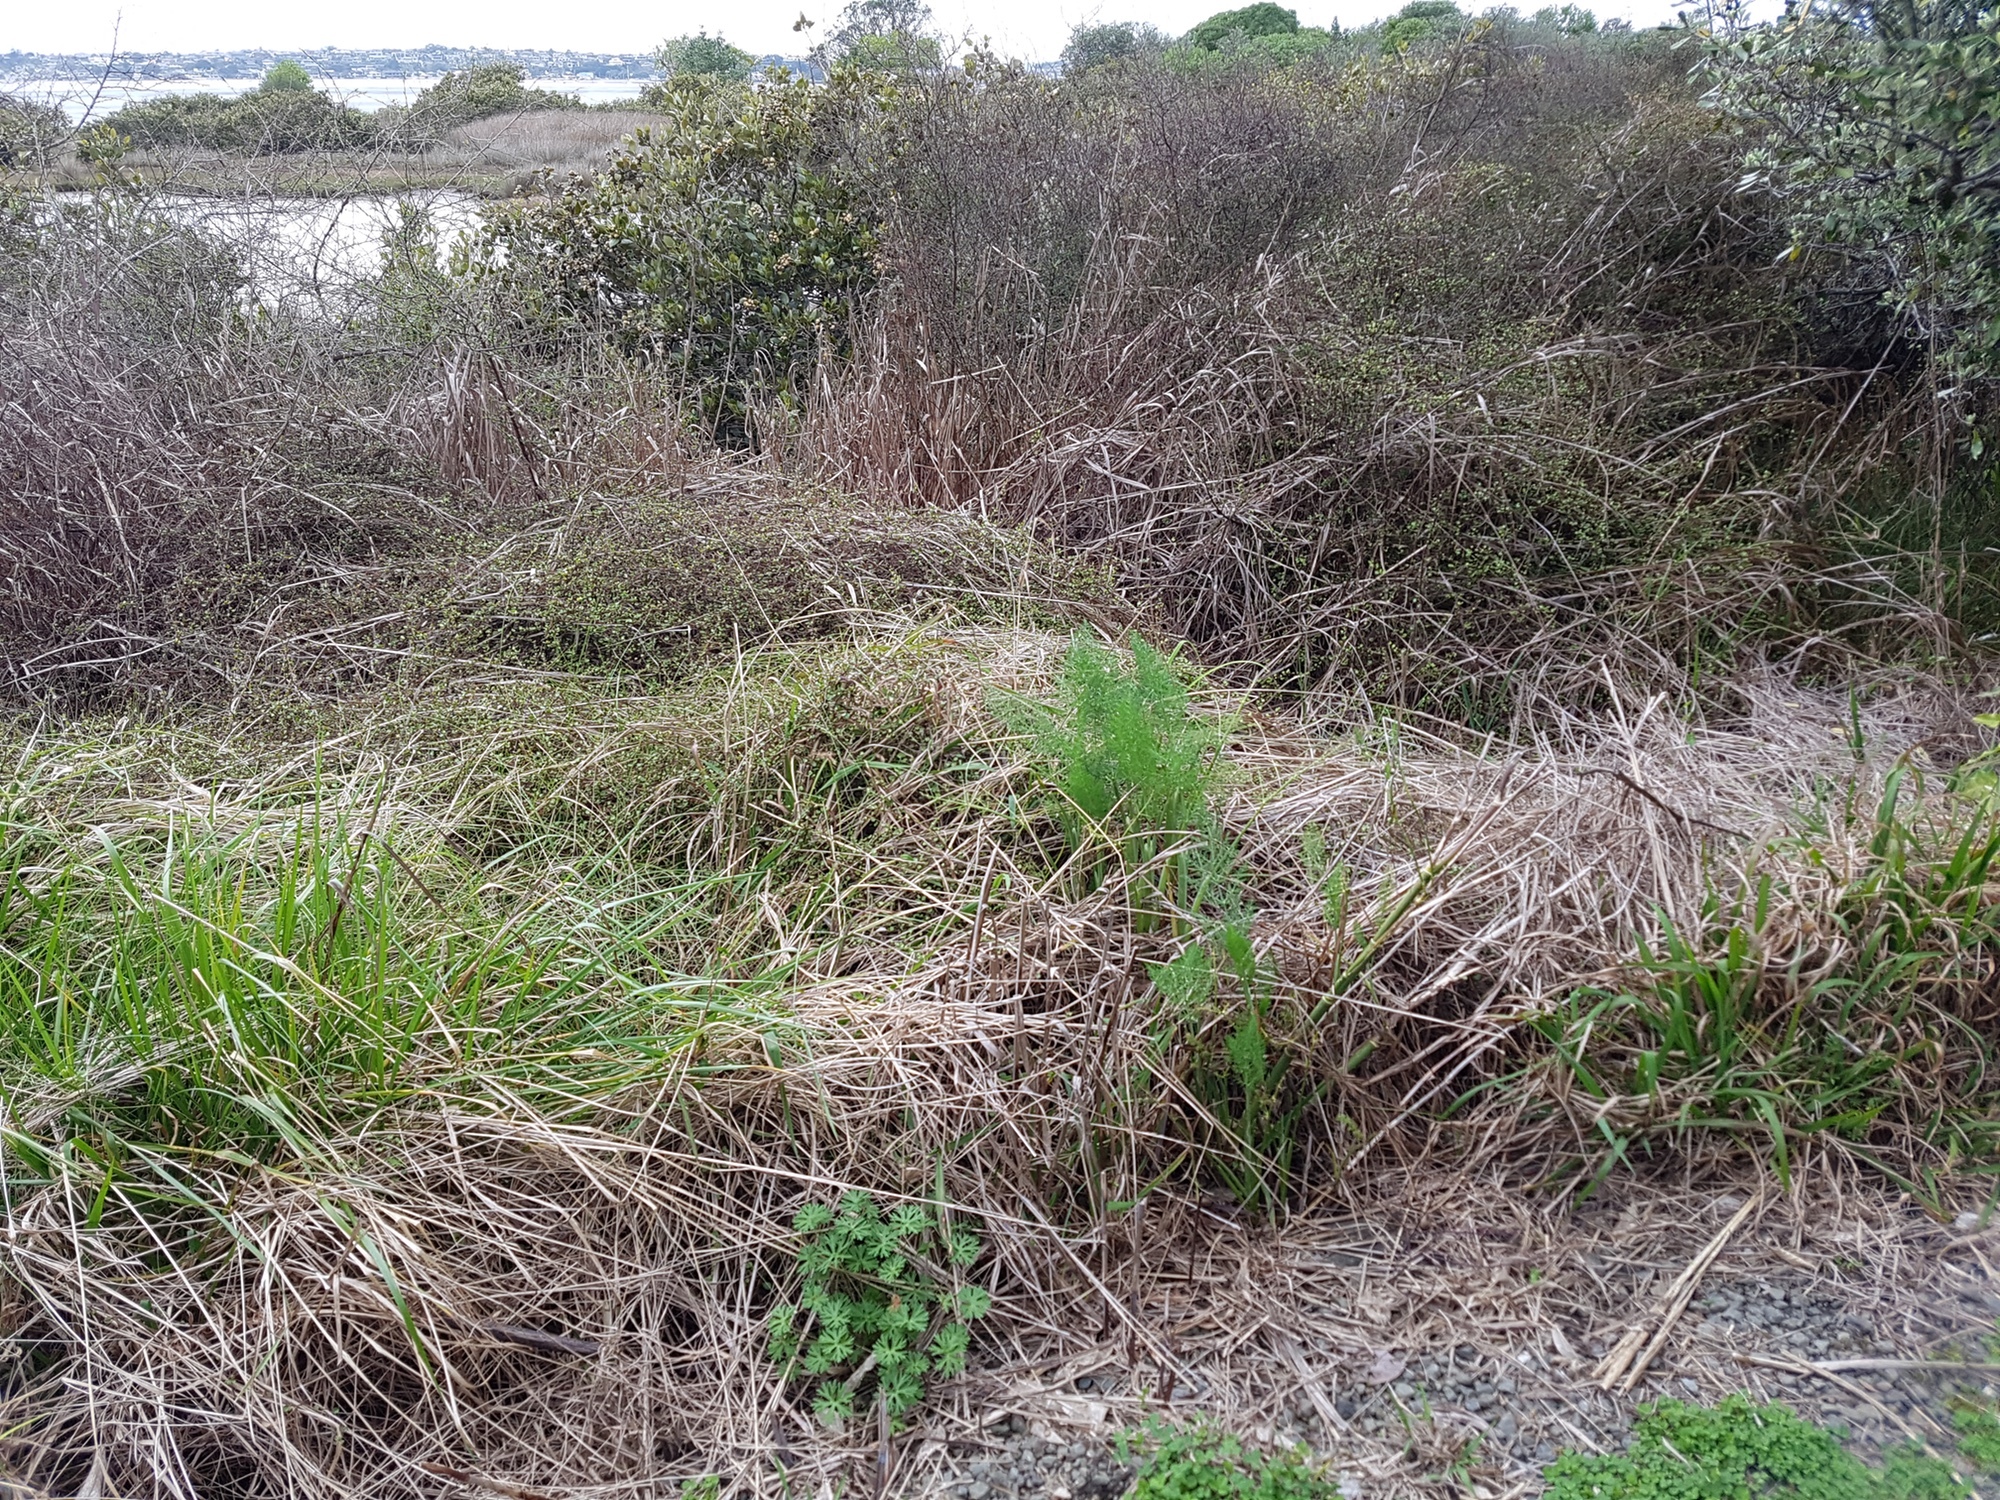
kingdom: Plantae
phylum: Tracheophyta
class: Magnoliopsida
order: Apiales
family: Apiaceae
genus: Foeniculum
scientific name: Foeniculum vulgare
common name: Fennel
